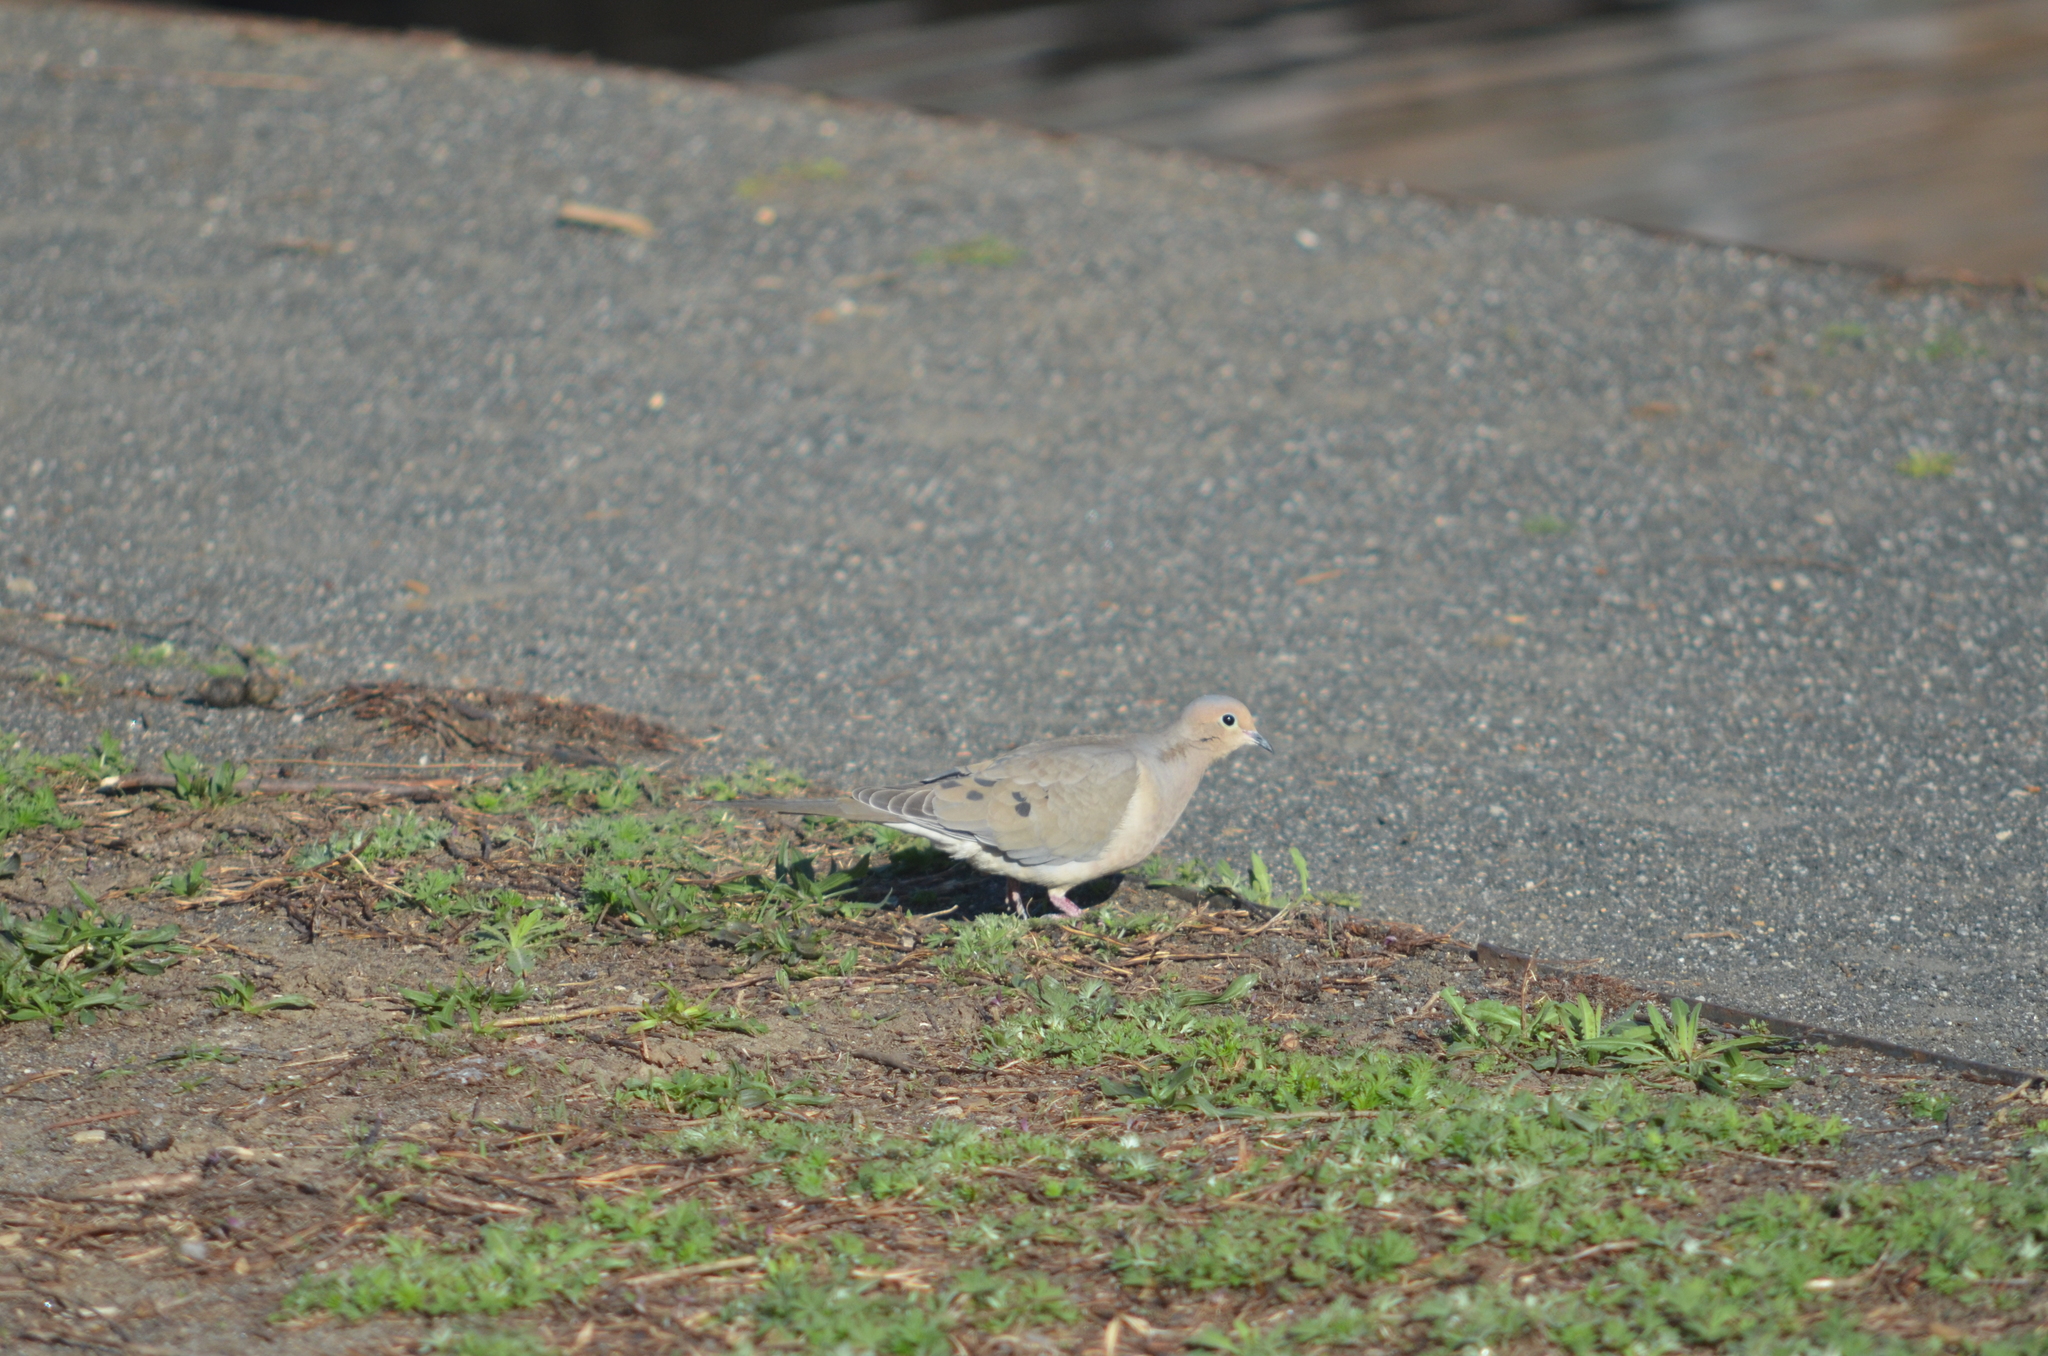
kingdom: Animalia
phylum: Chordata
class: Aves
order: Columbiformes
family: Columbidae
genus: Zenaida
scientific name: Zenaida macroura
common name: Mourning dove
